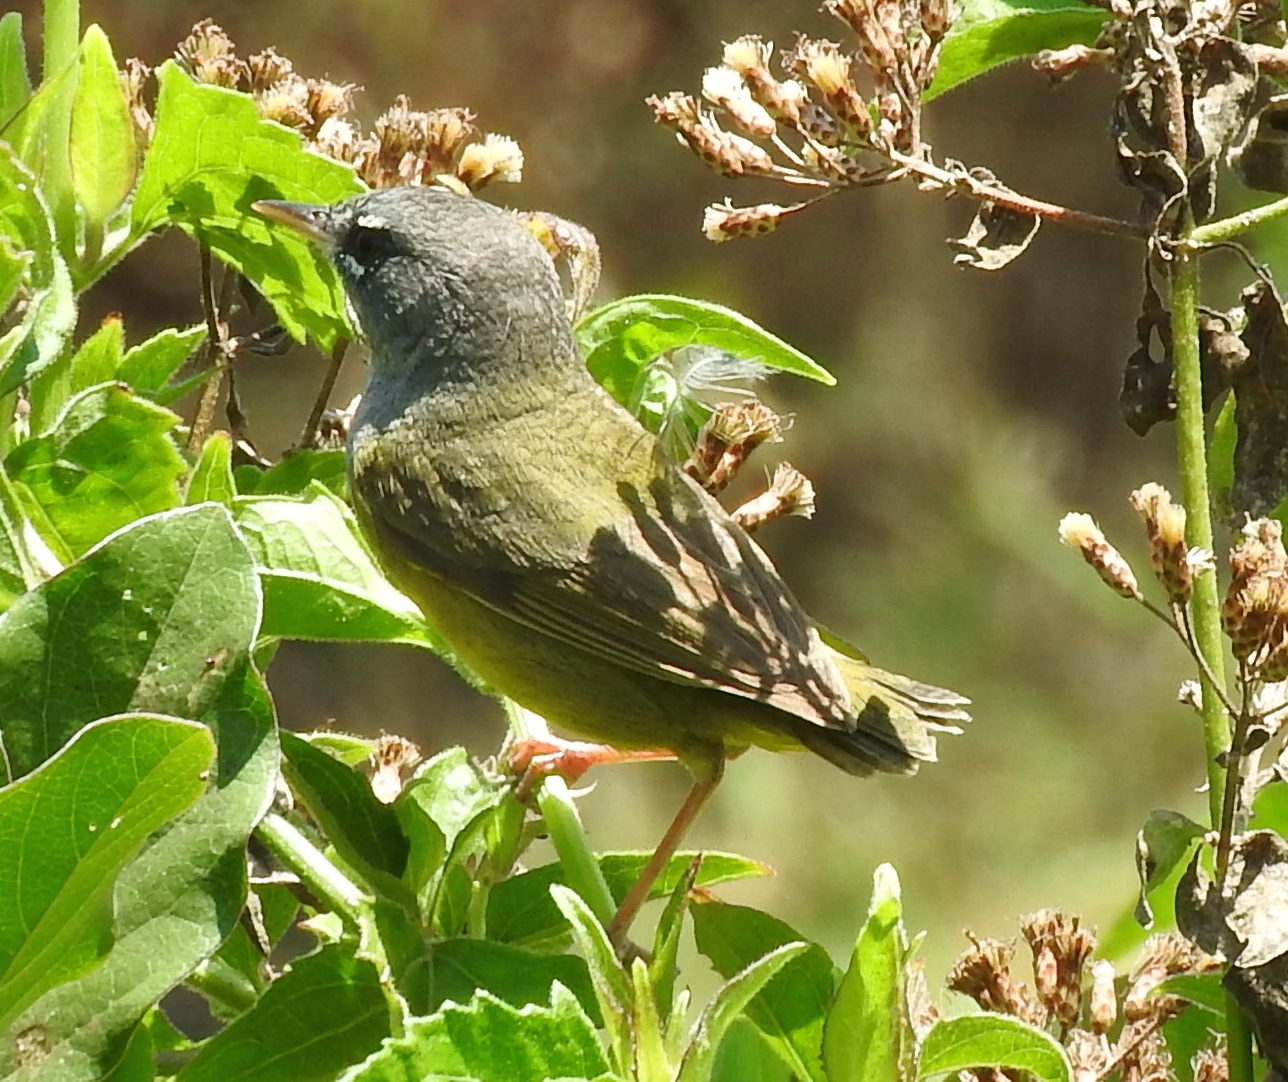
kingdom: Animalia
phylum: Chordata
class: Aves
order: Passeriformes
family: Parulidae
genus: Geothlypis
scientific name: Geothlypis tolmiei
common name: Macgillivray's warbler
